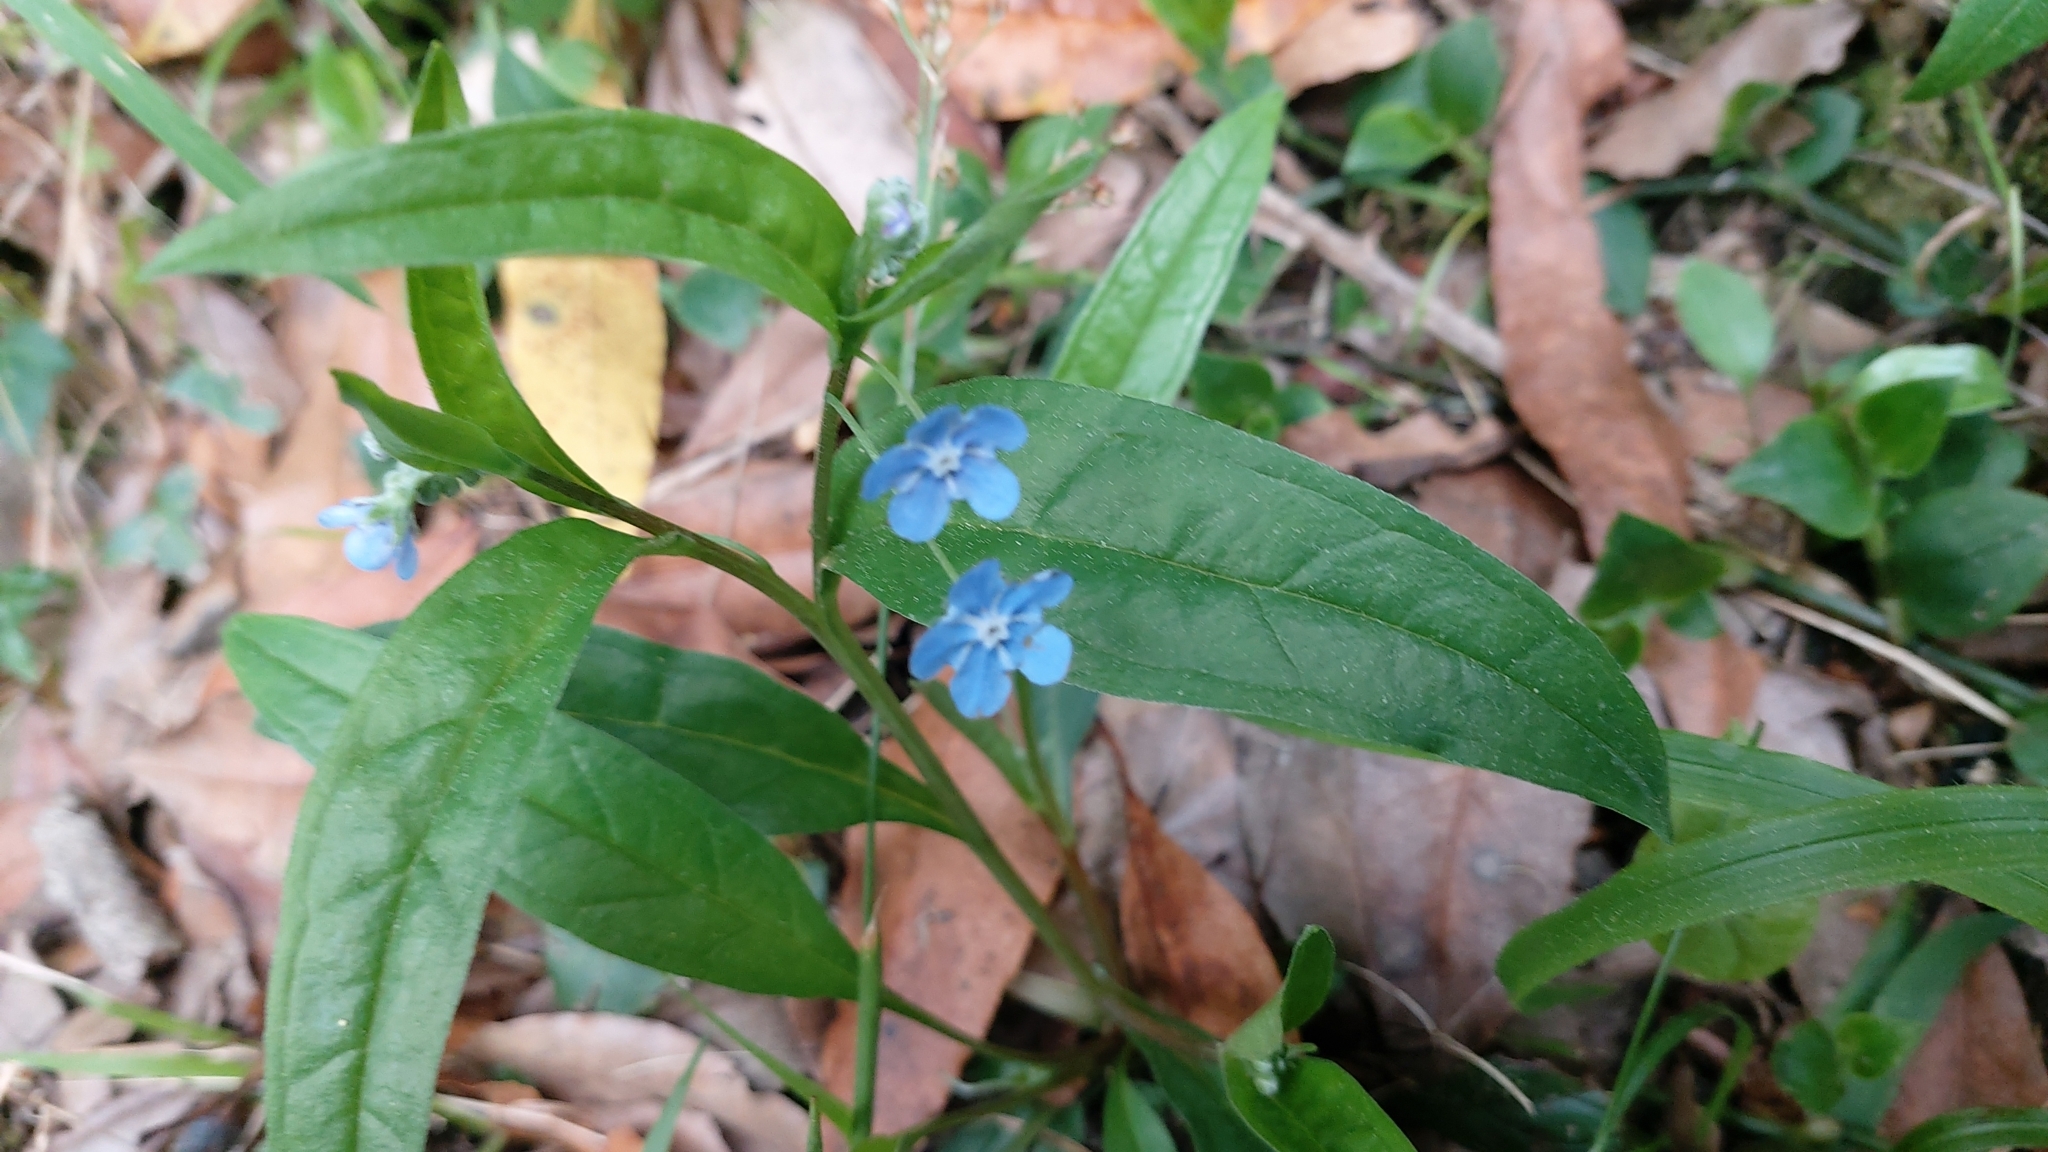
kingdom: Plantae
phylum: Tracheophyta
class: Magnoliopsida
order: Boraginales
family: Boraginaceae
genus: Omphalodes
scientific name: Omphalodes nitida
